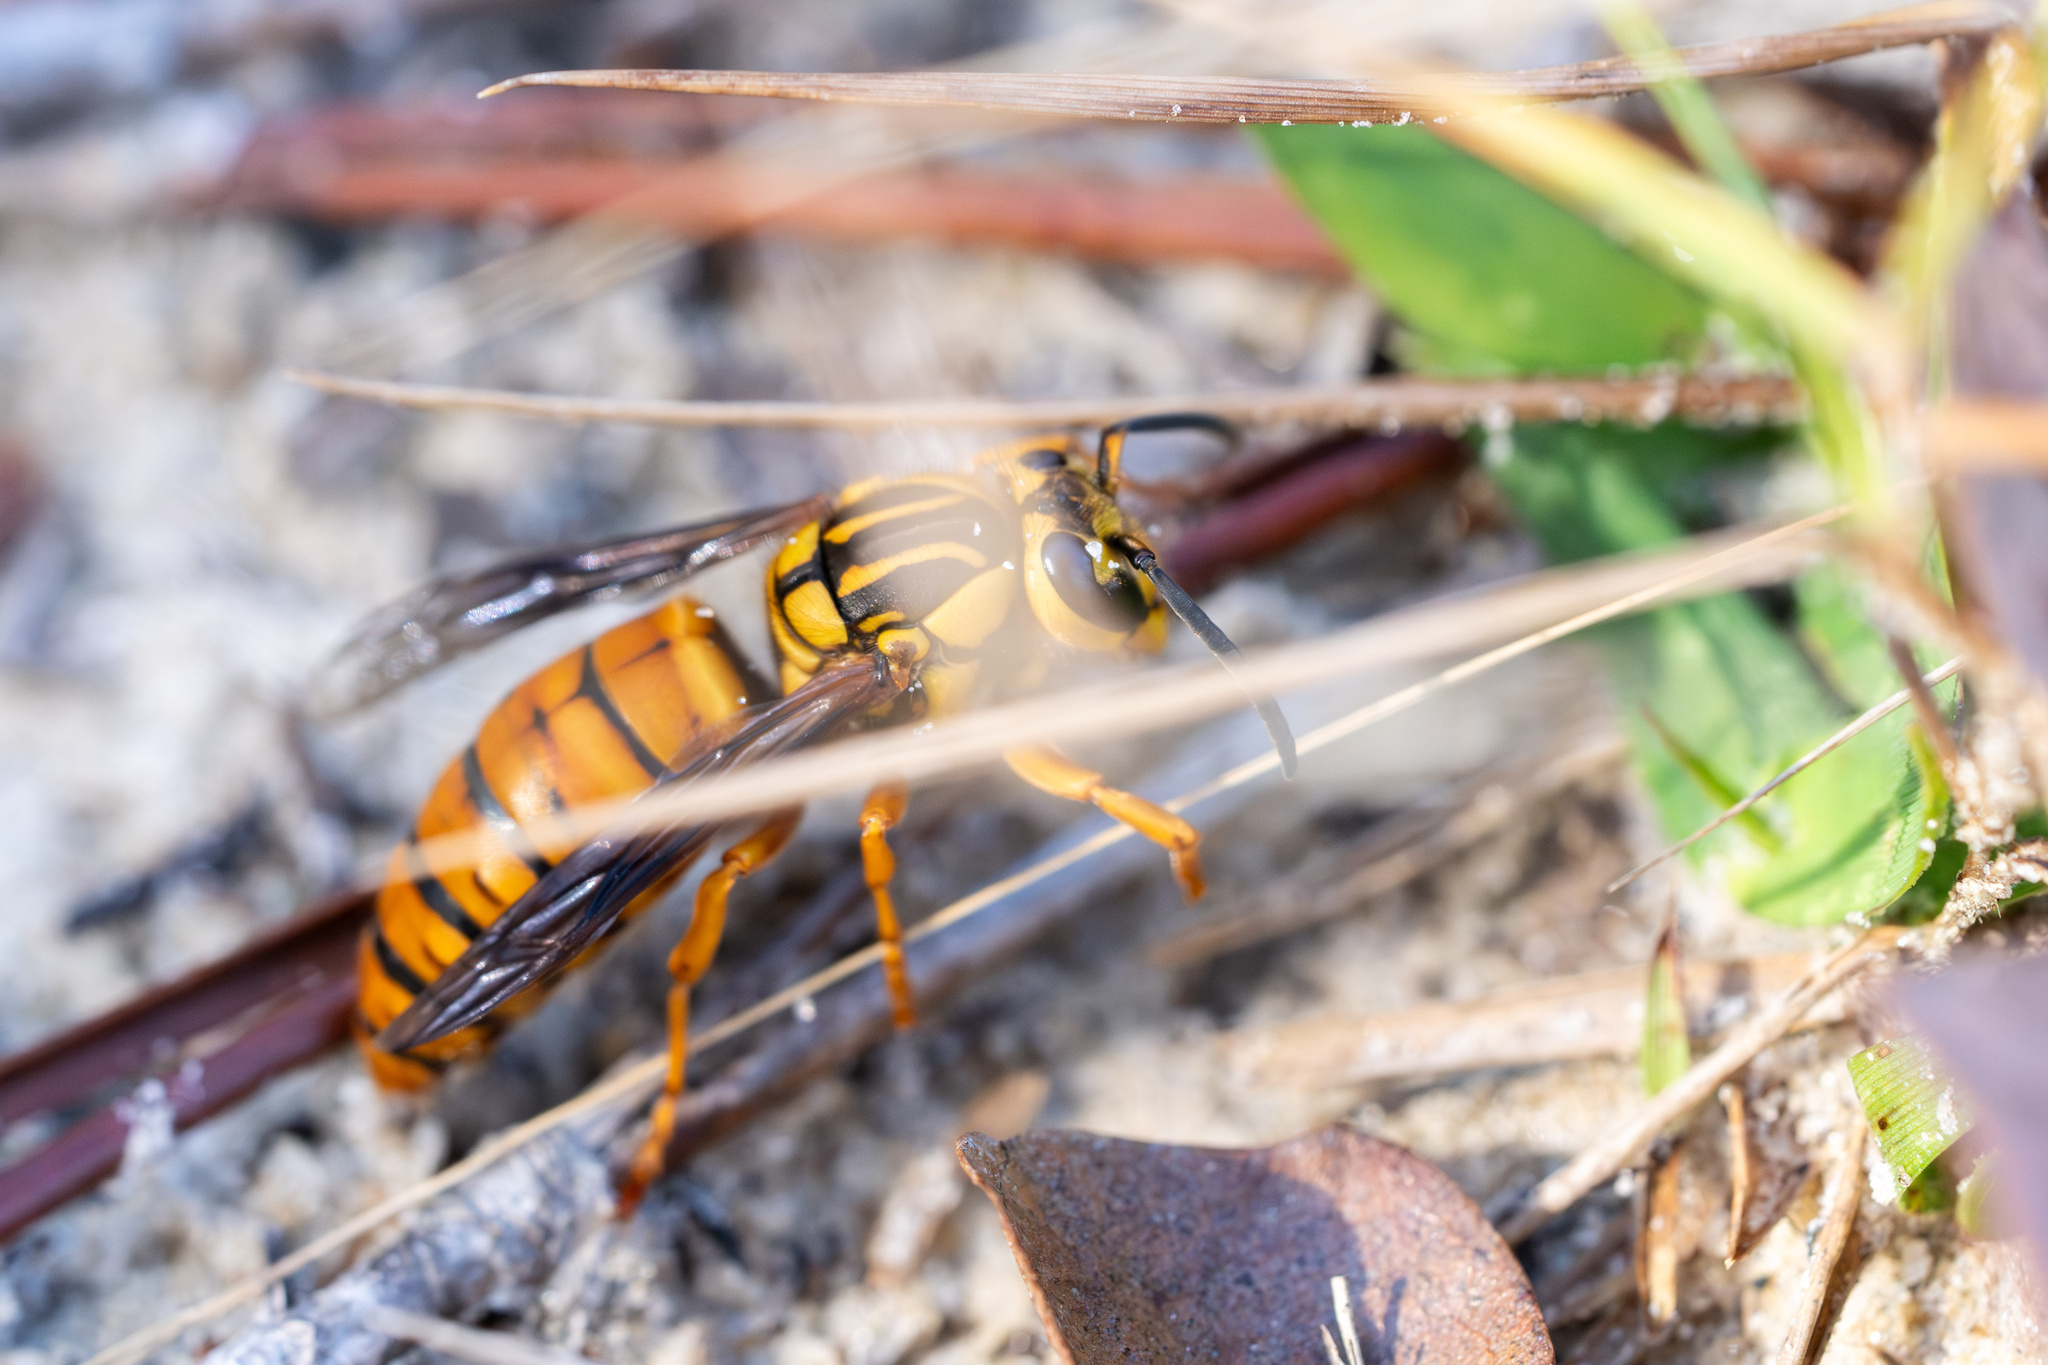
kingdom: Animalia
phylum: Arthropoda
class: Insecta
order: Hymenoptera
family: Vespidae
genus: Vespula
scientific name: Vespula squamosa
